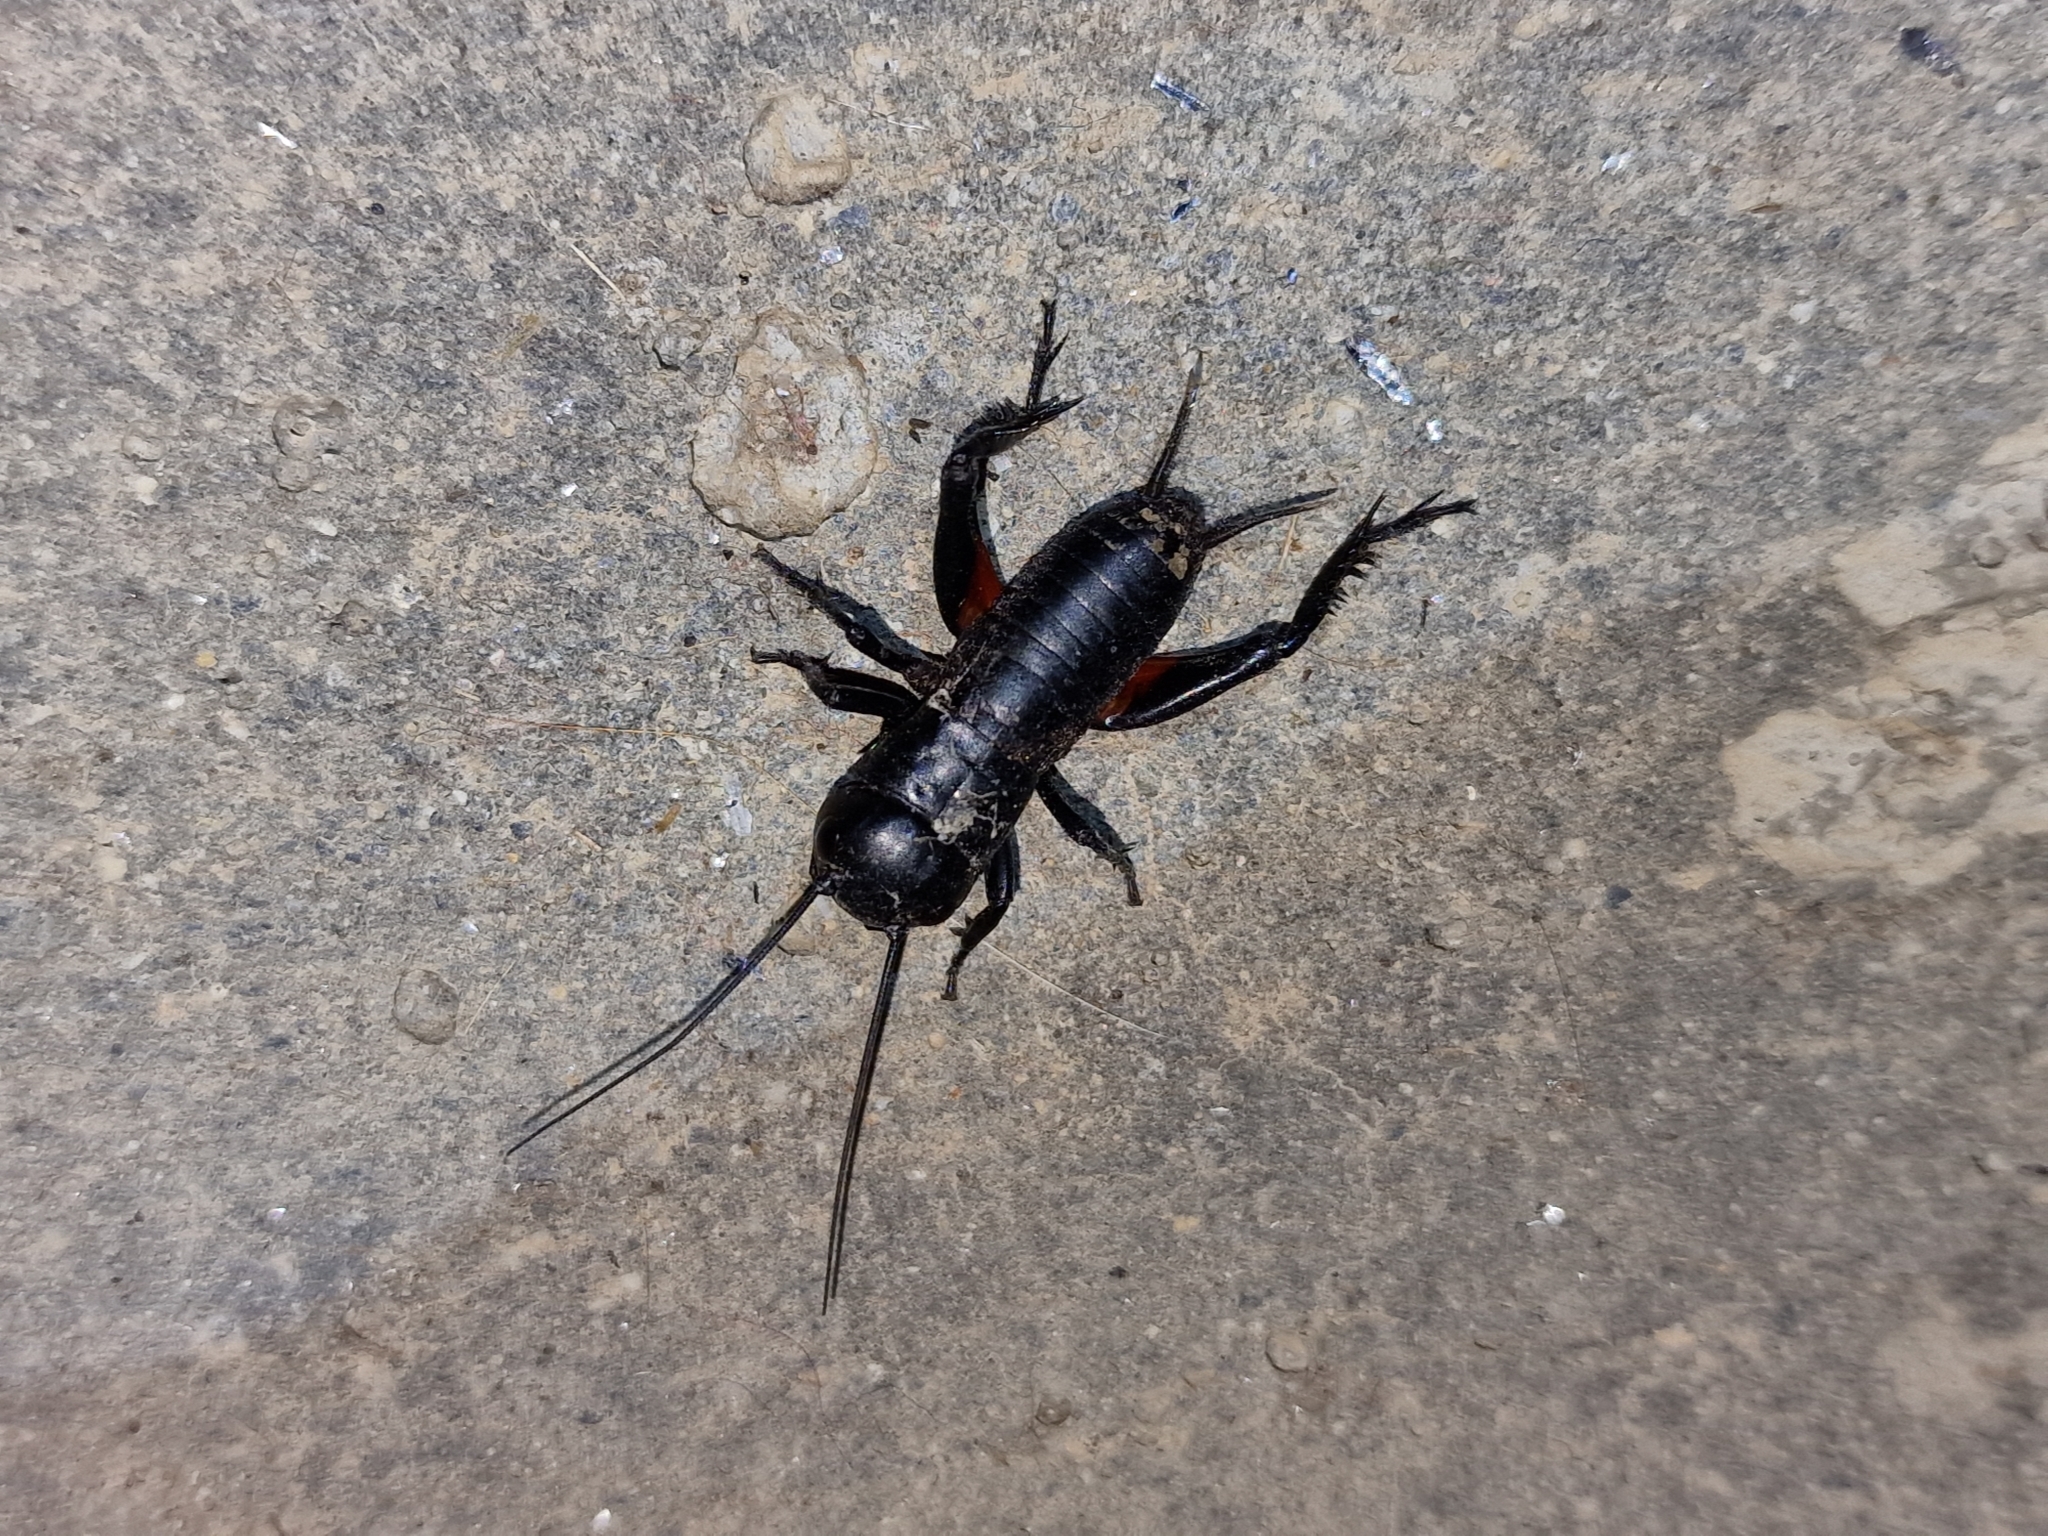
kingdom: Animalia
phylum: Arthropoda
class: Insecta
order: Orthoptera
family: Gryllidae
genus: Gryllus
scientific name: Gryllus campestris
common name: Field cricket
